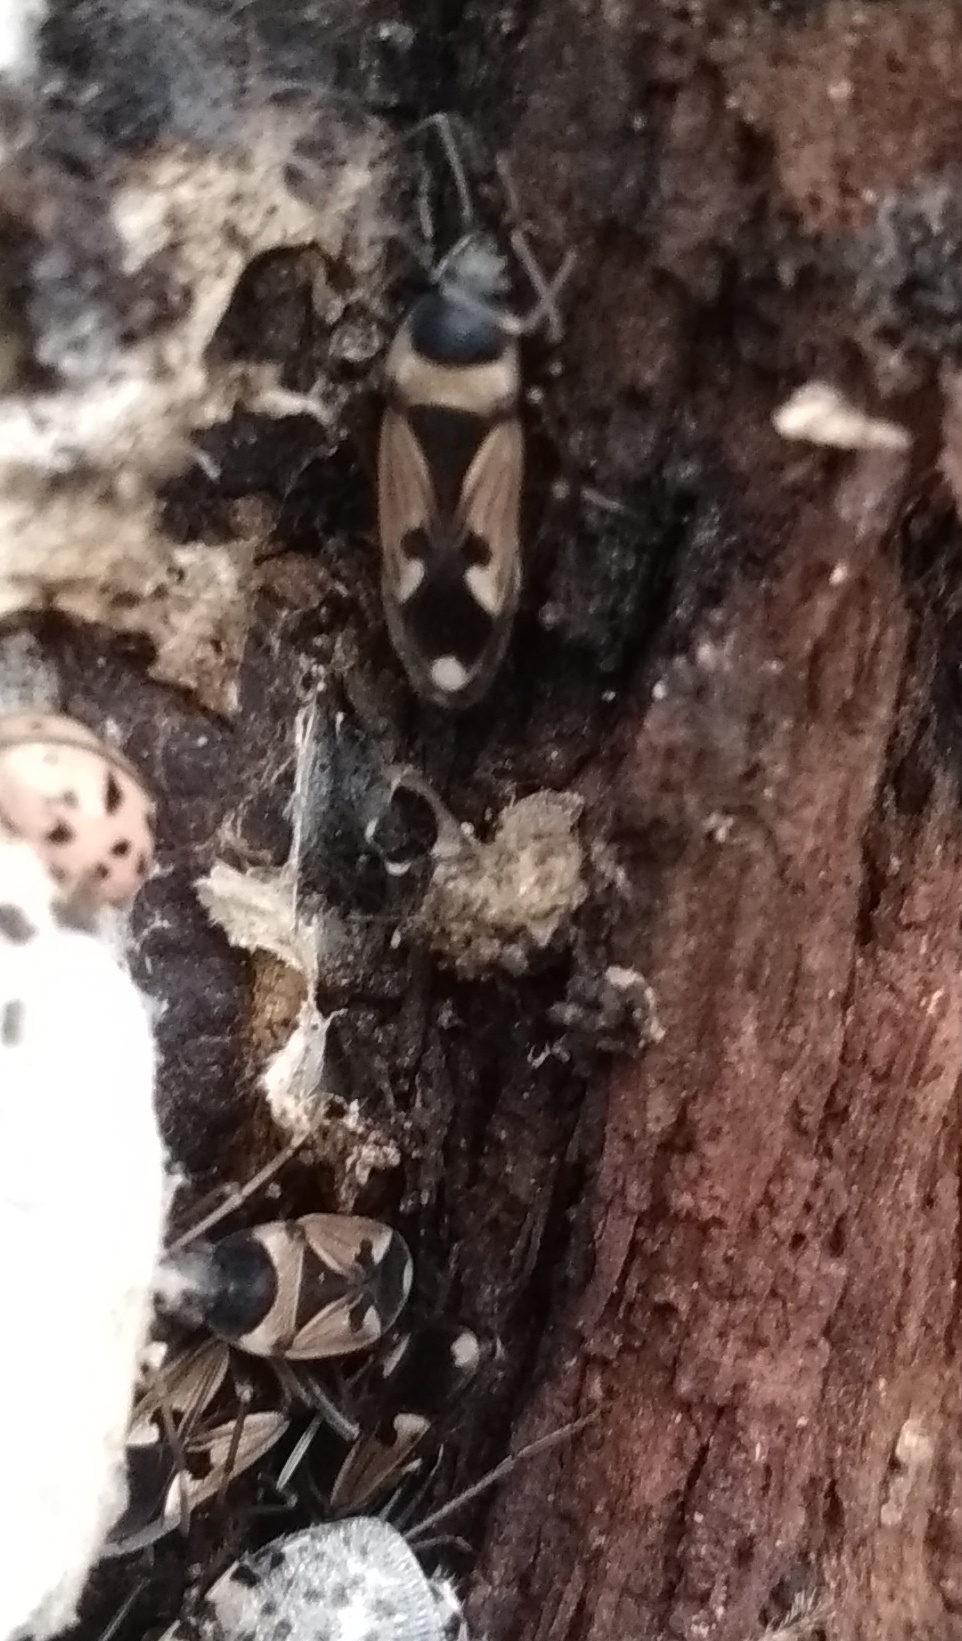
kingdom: Animalia
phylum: Arthropoda
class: Insecta
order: Hemiptera
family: Rhyparochromidae
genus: Raglius
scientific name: Raglius confusus
